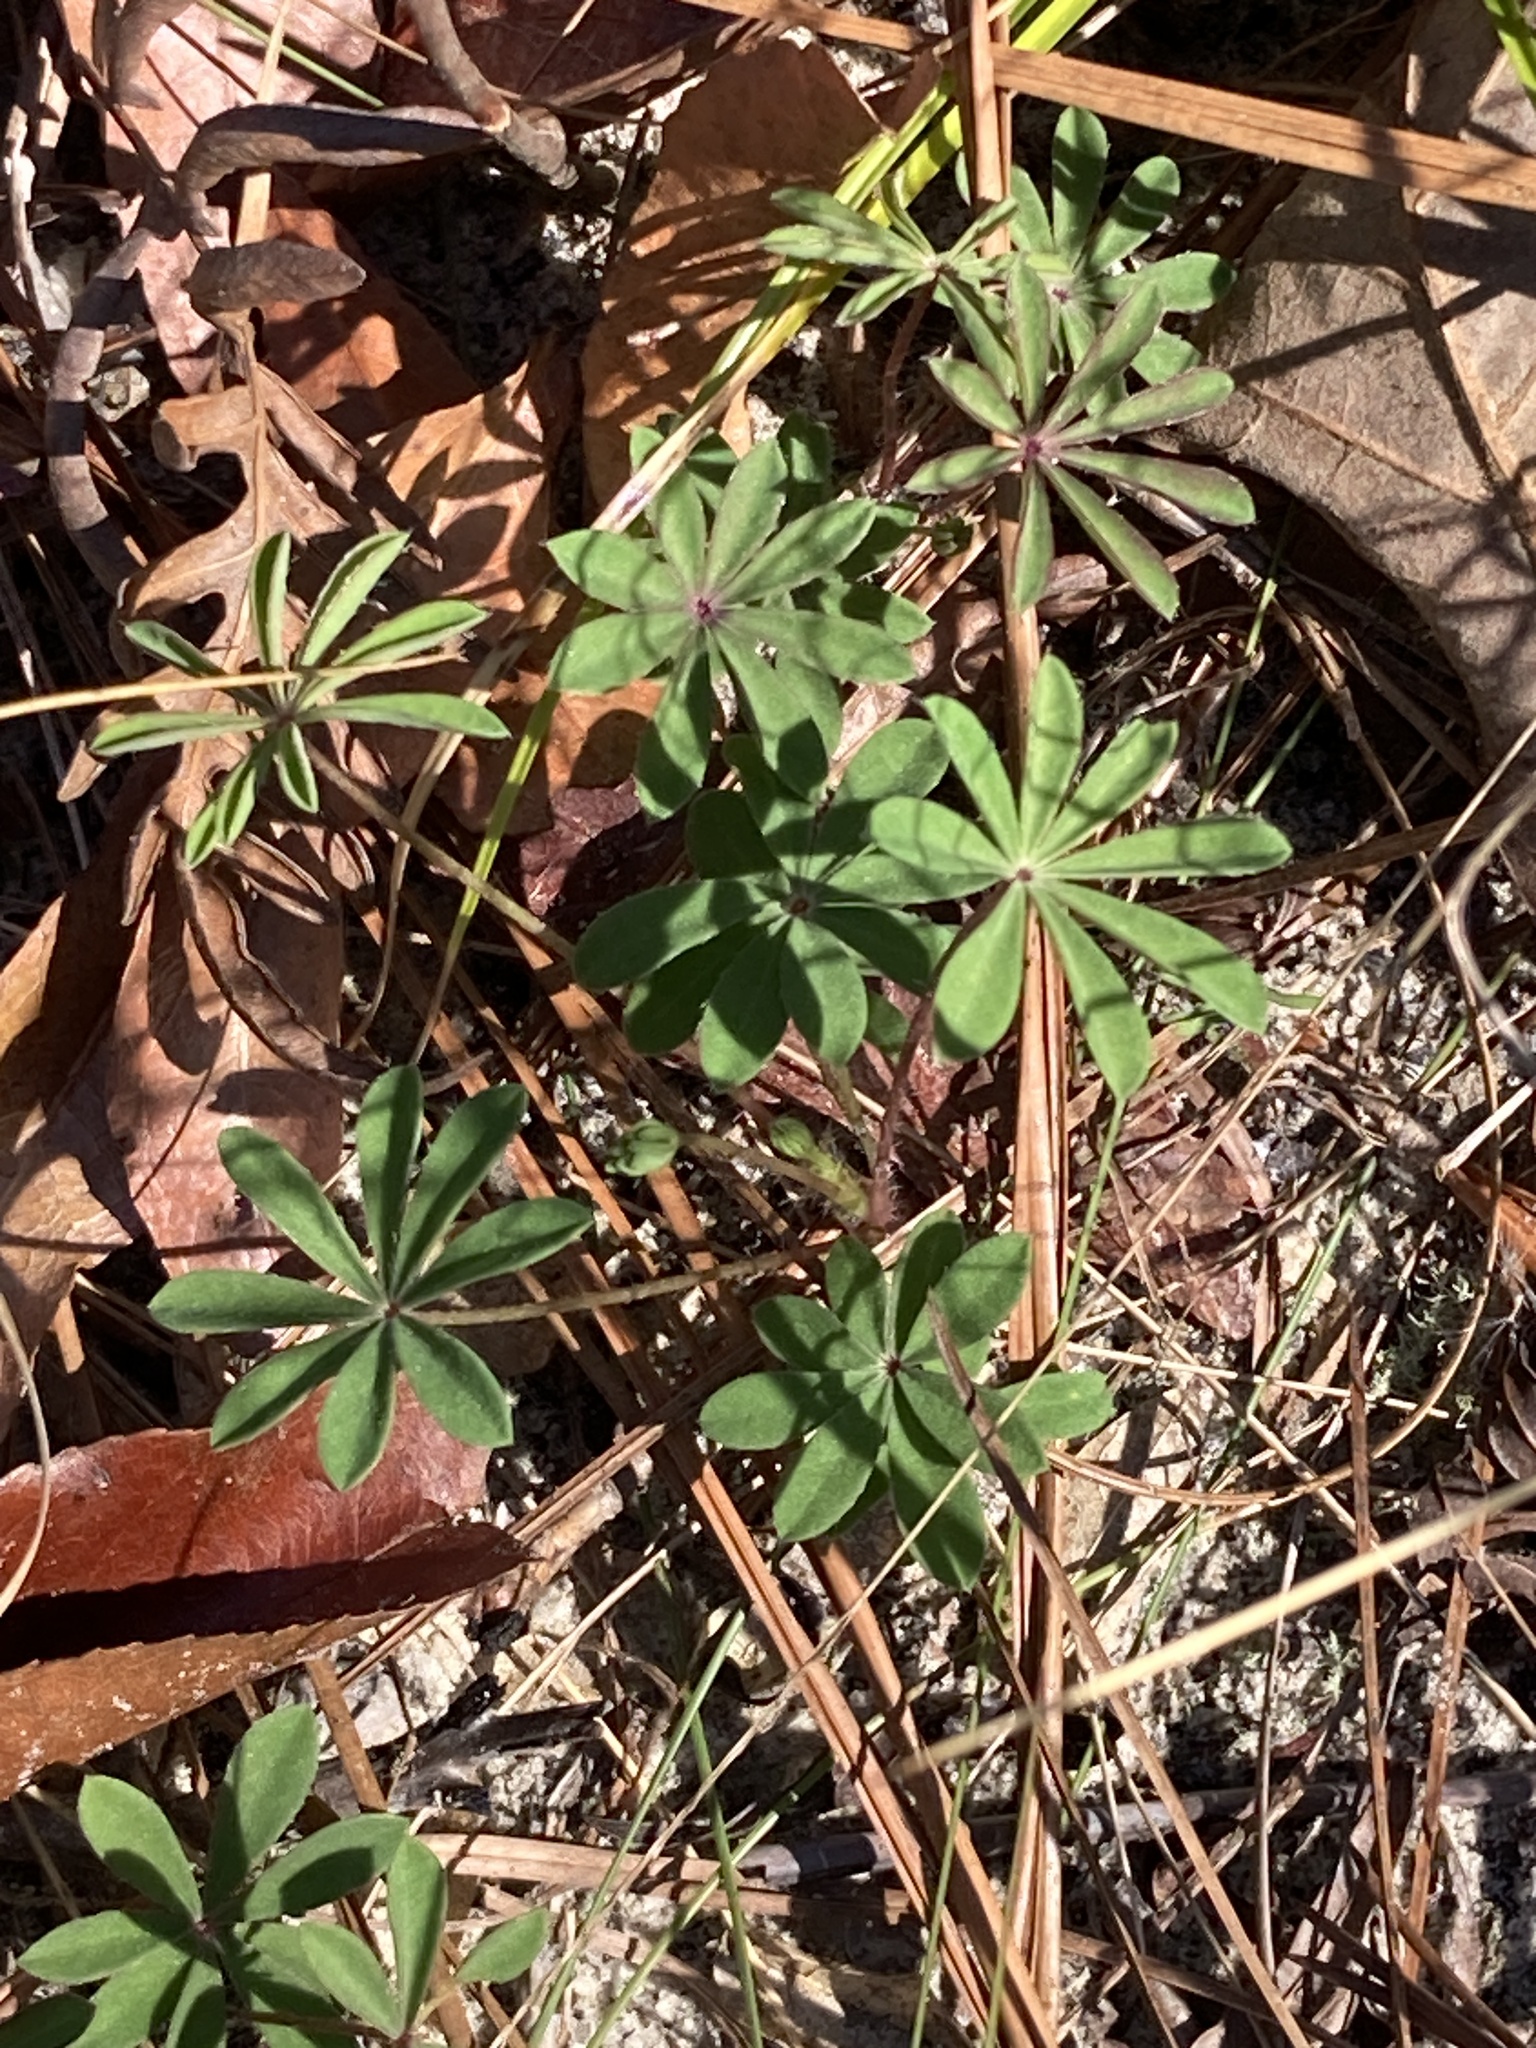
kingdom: Plantae
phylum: Tracheophyta
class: Magnoliopsida
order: Fabales
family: Fabaceae
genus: Lupinus
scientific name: Lupinus perennis
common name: Sundial lupine
